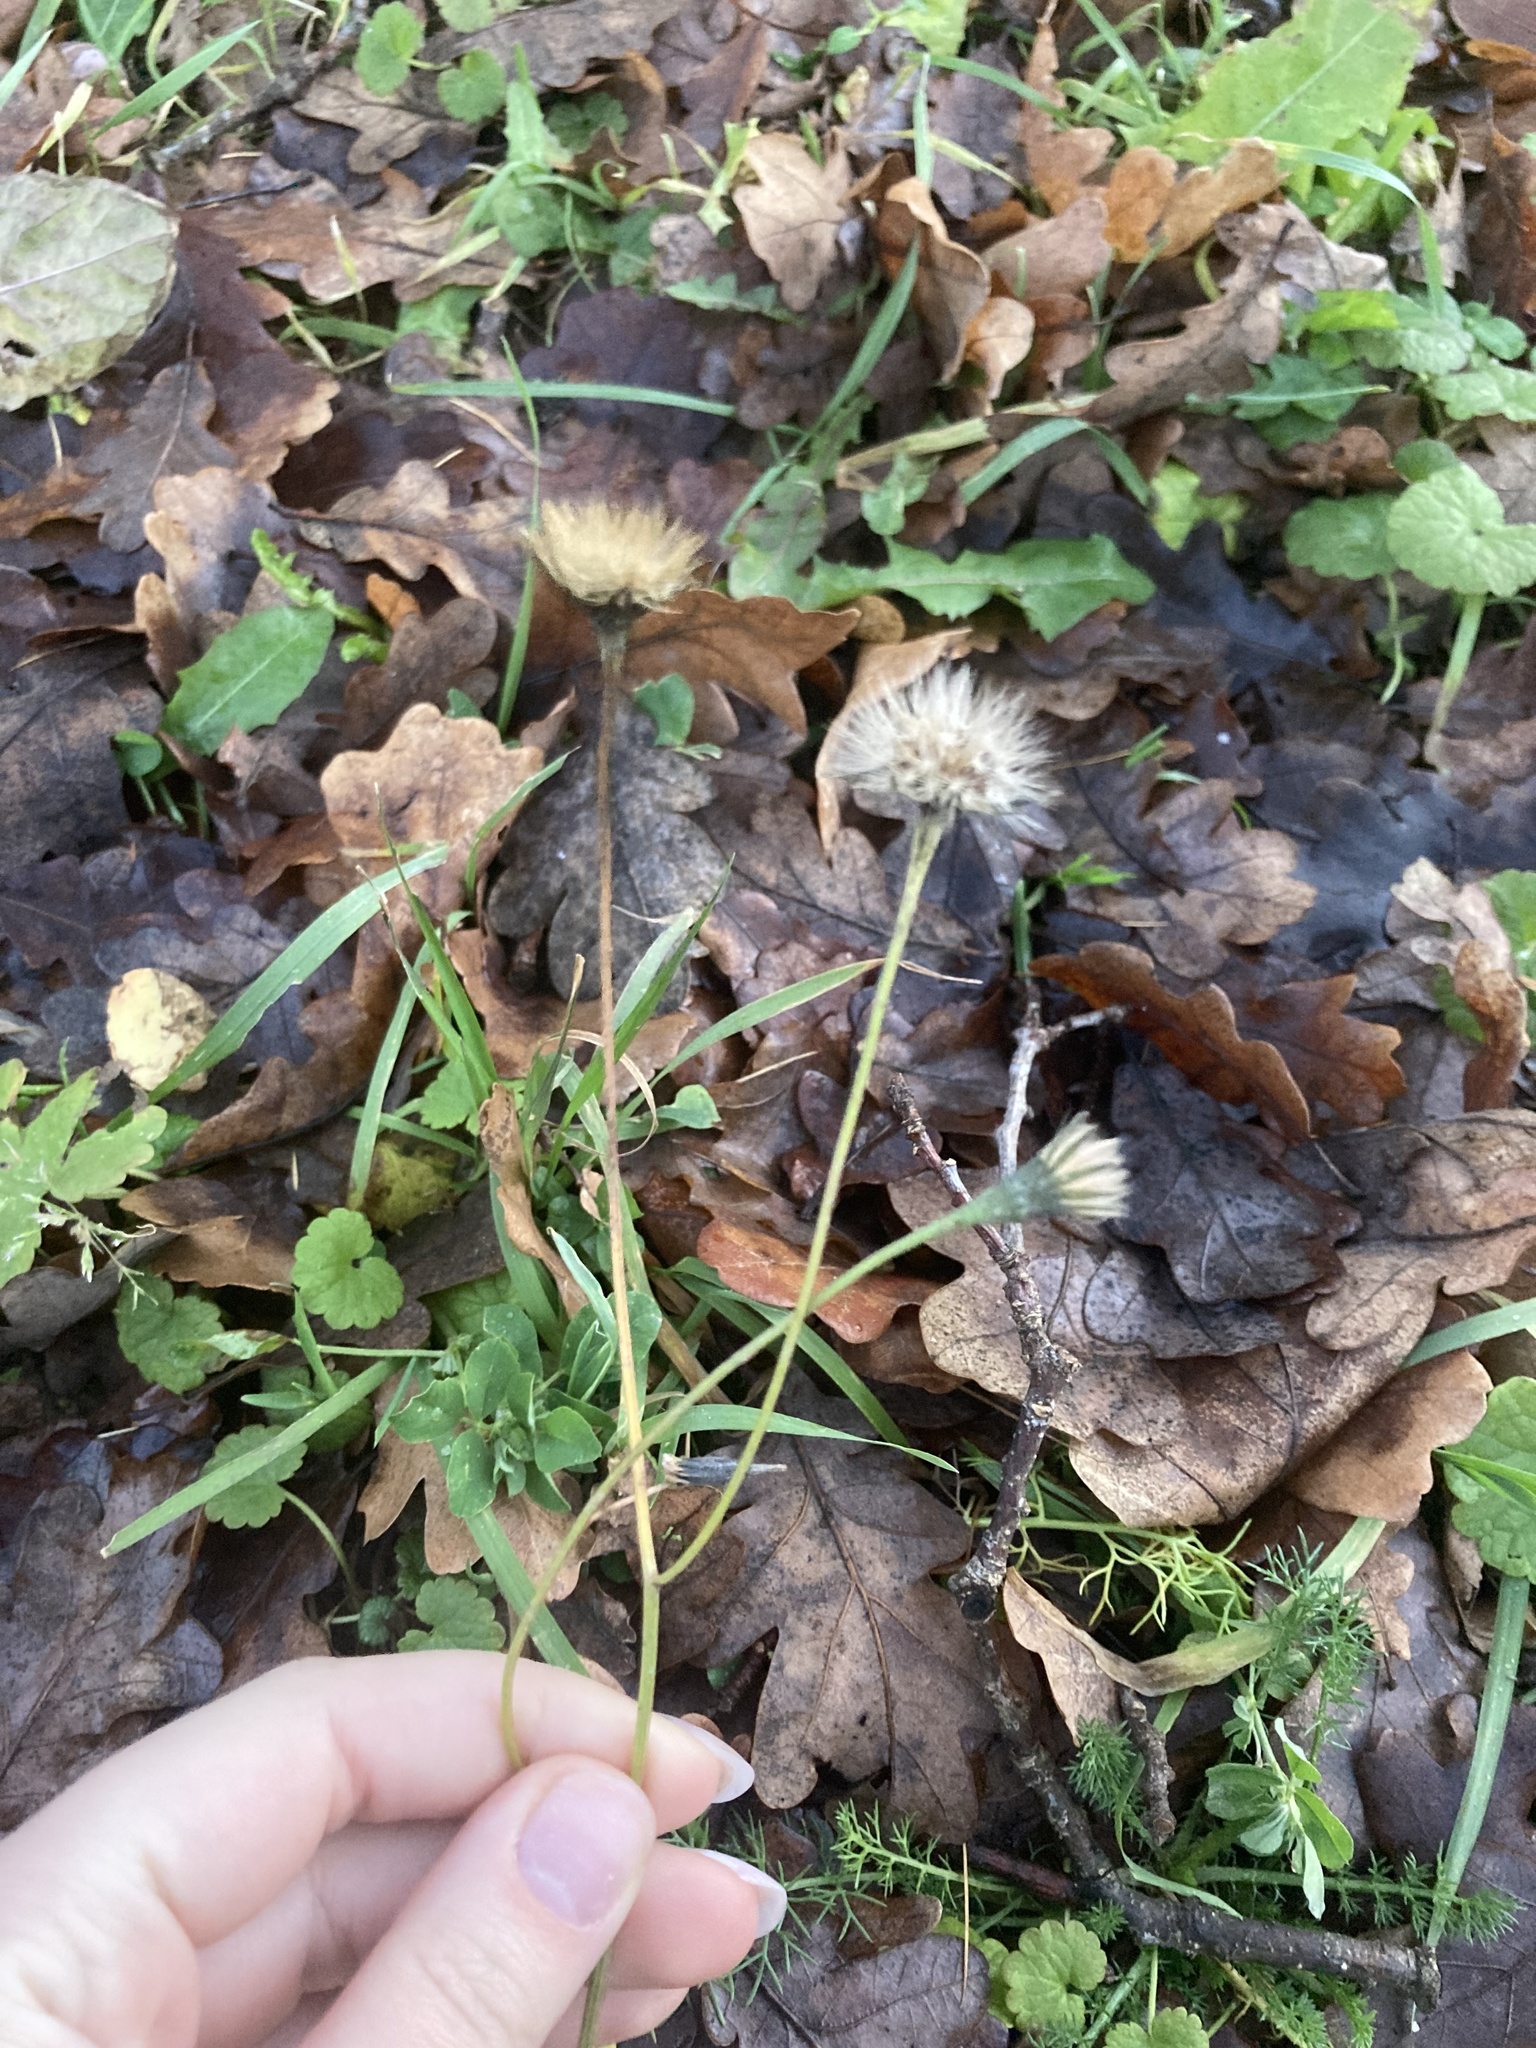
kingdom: Plantae
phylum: Tracheophyta
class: Magnoliopsida
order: Asterales
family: Asteraceae
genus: Scorzoneroides
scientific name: Scorzoneroides autumnalis
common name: Autumn hawkbit
